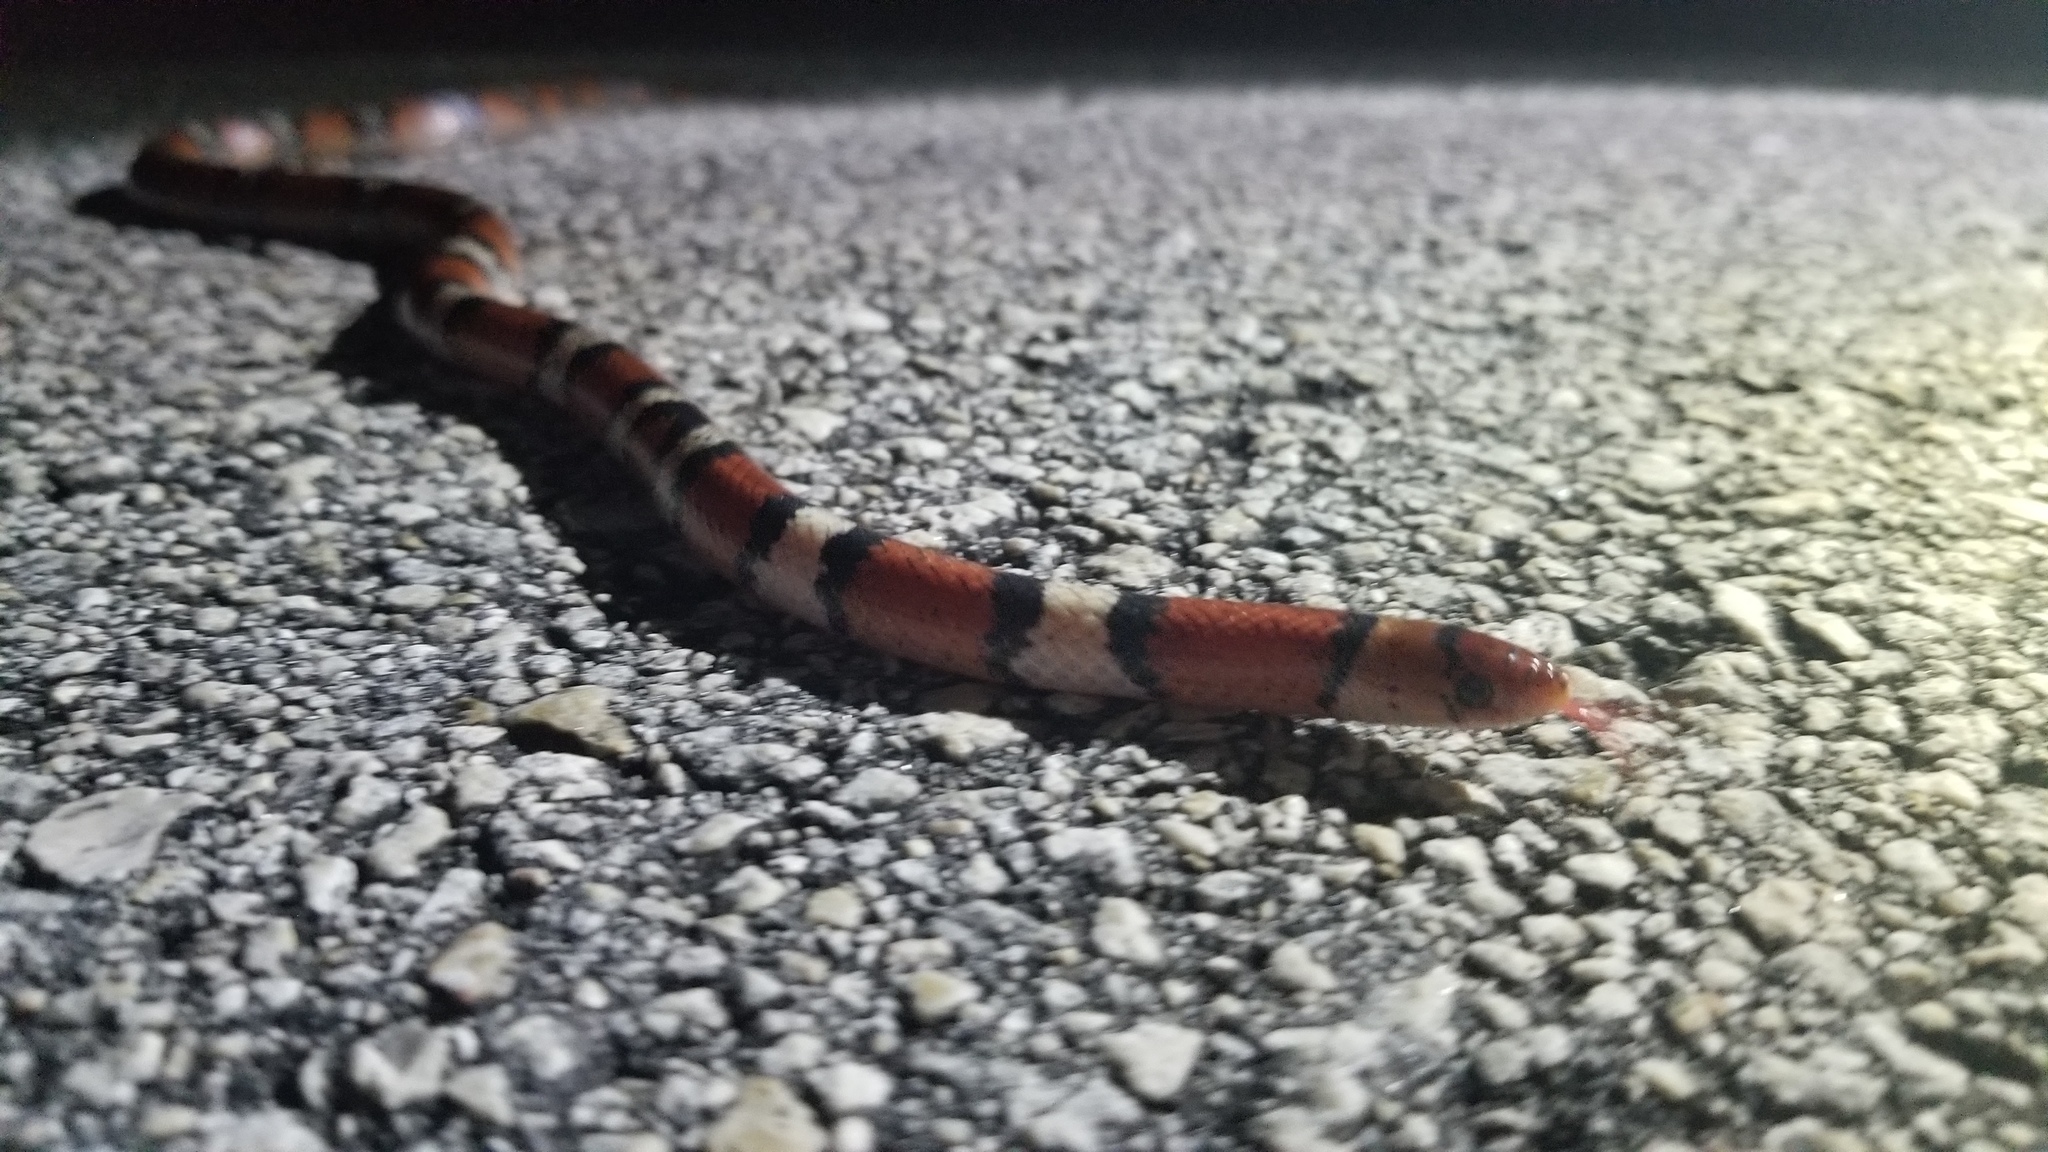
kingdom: Animalia
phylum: Chordata
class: Squamata
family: Colubridae
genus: Cemophora
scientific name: Cemophora coccinea
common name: Scarlet snake
